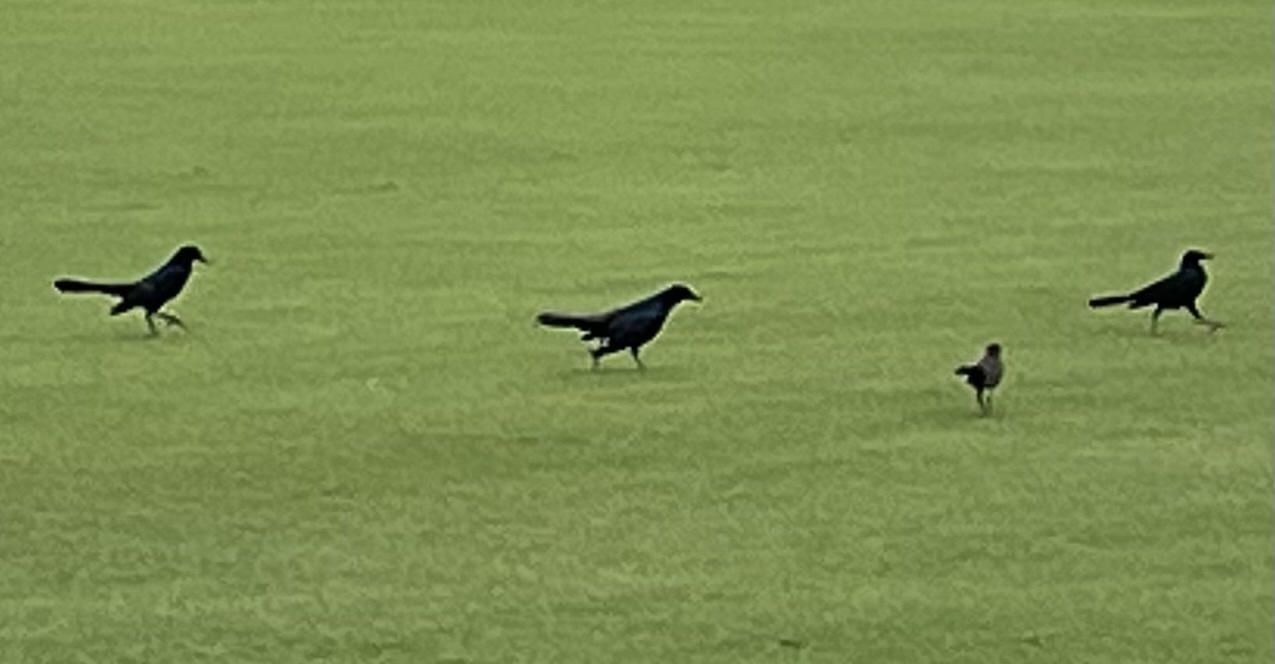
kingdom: Animalia
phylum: Chordata
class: Aves
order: Passeriformes
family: Icteridae
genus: Quiscalus
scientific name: Quiscalus major
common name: Boat-tailed grackle
